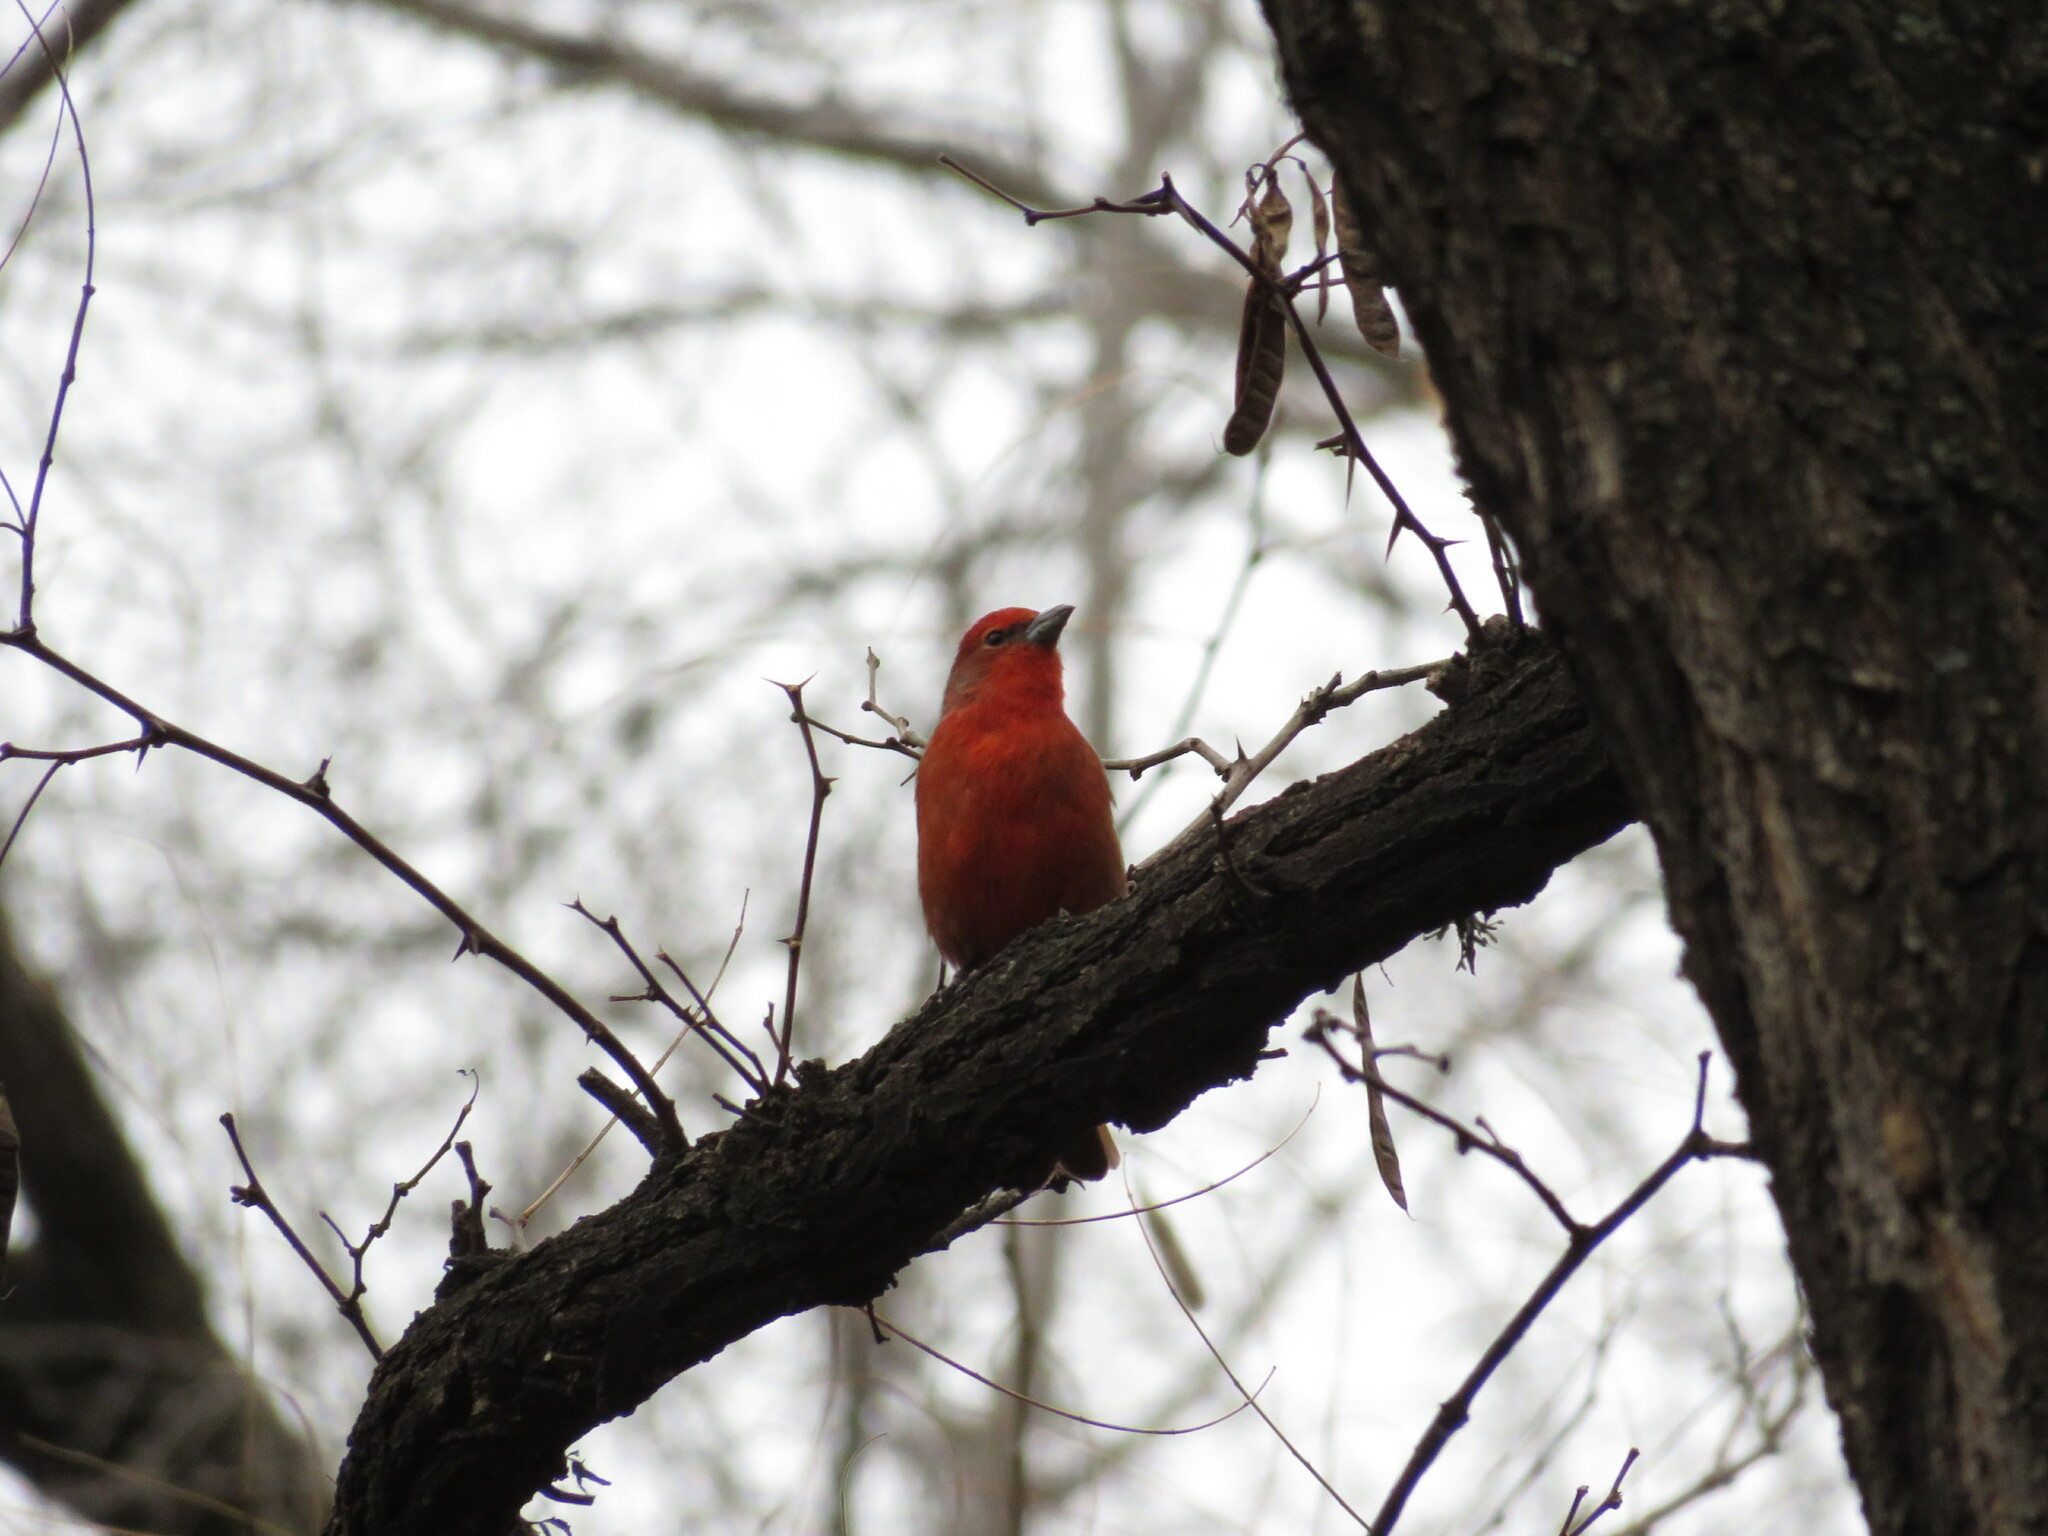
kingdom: Animalia
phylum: Chordata
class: Aves
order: Passeriformes
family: Cardinalidae
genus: Piranga
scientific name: Piranga flava
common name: Red tanager
